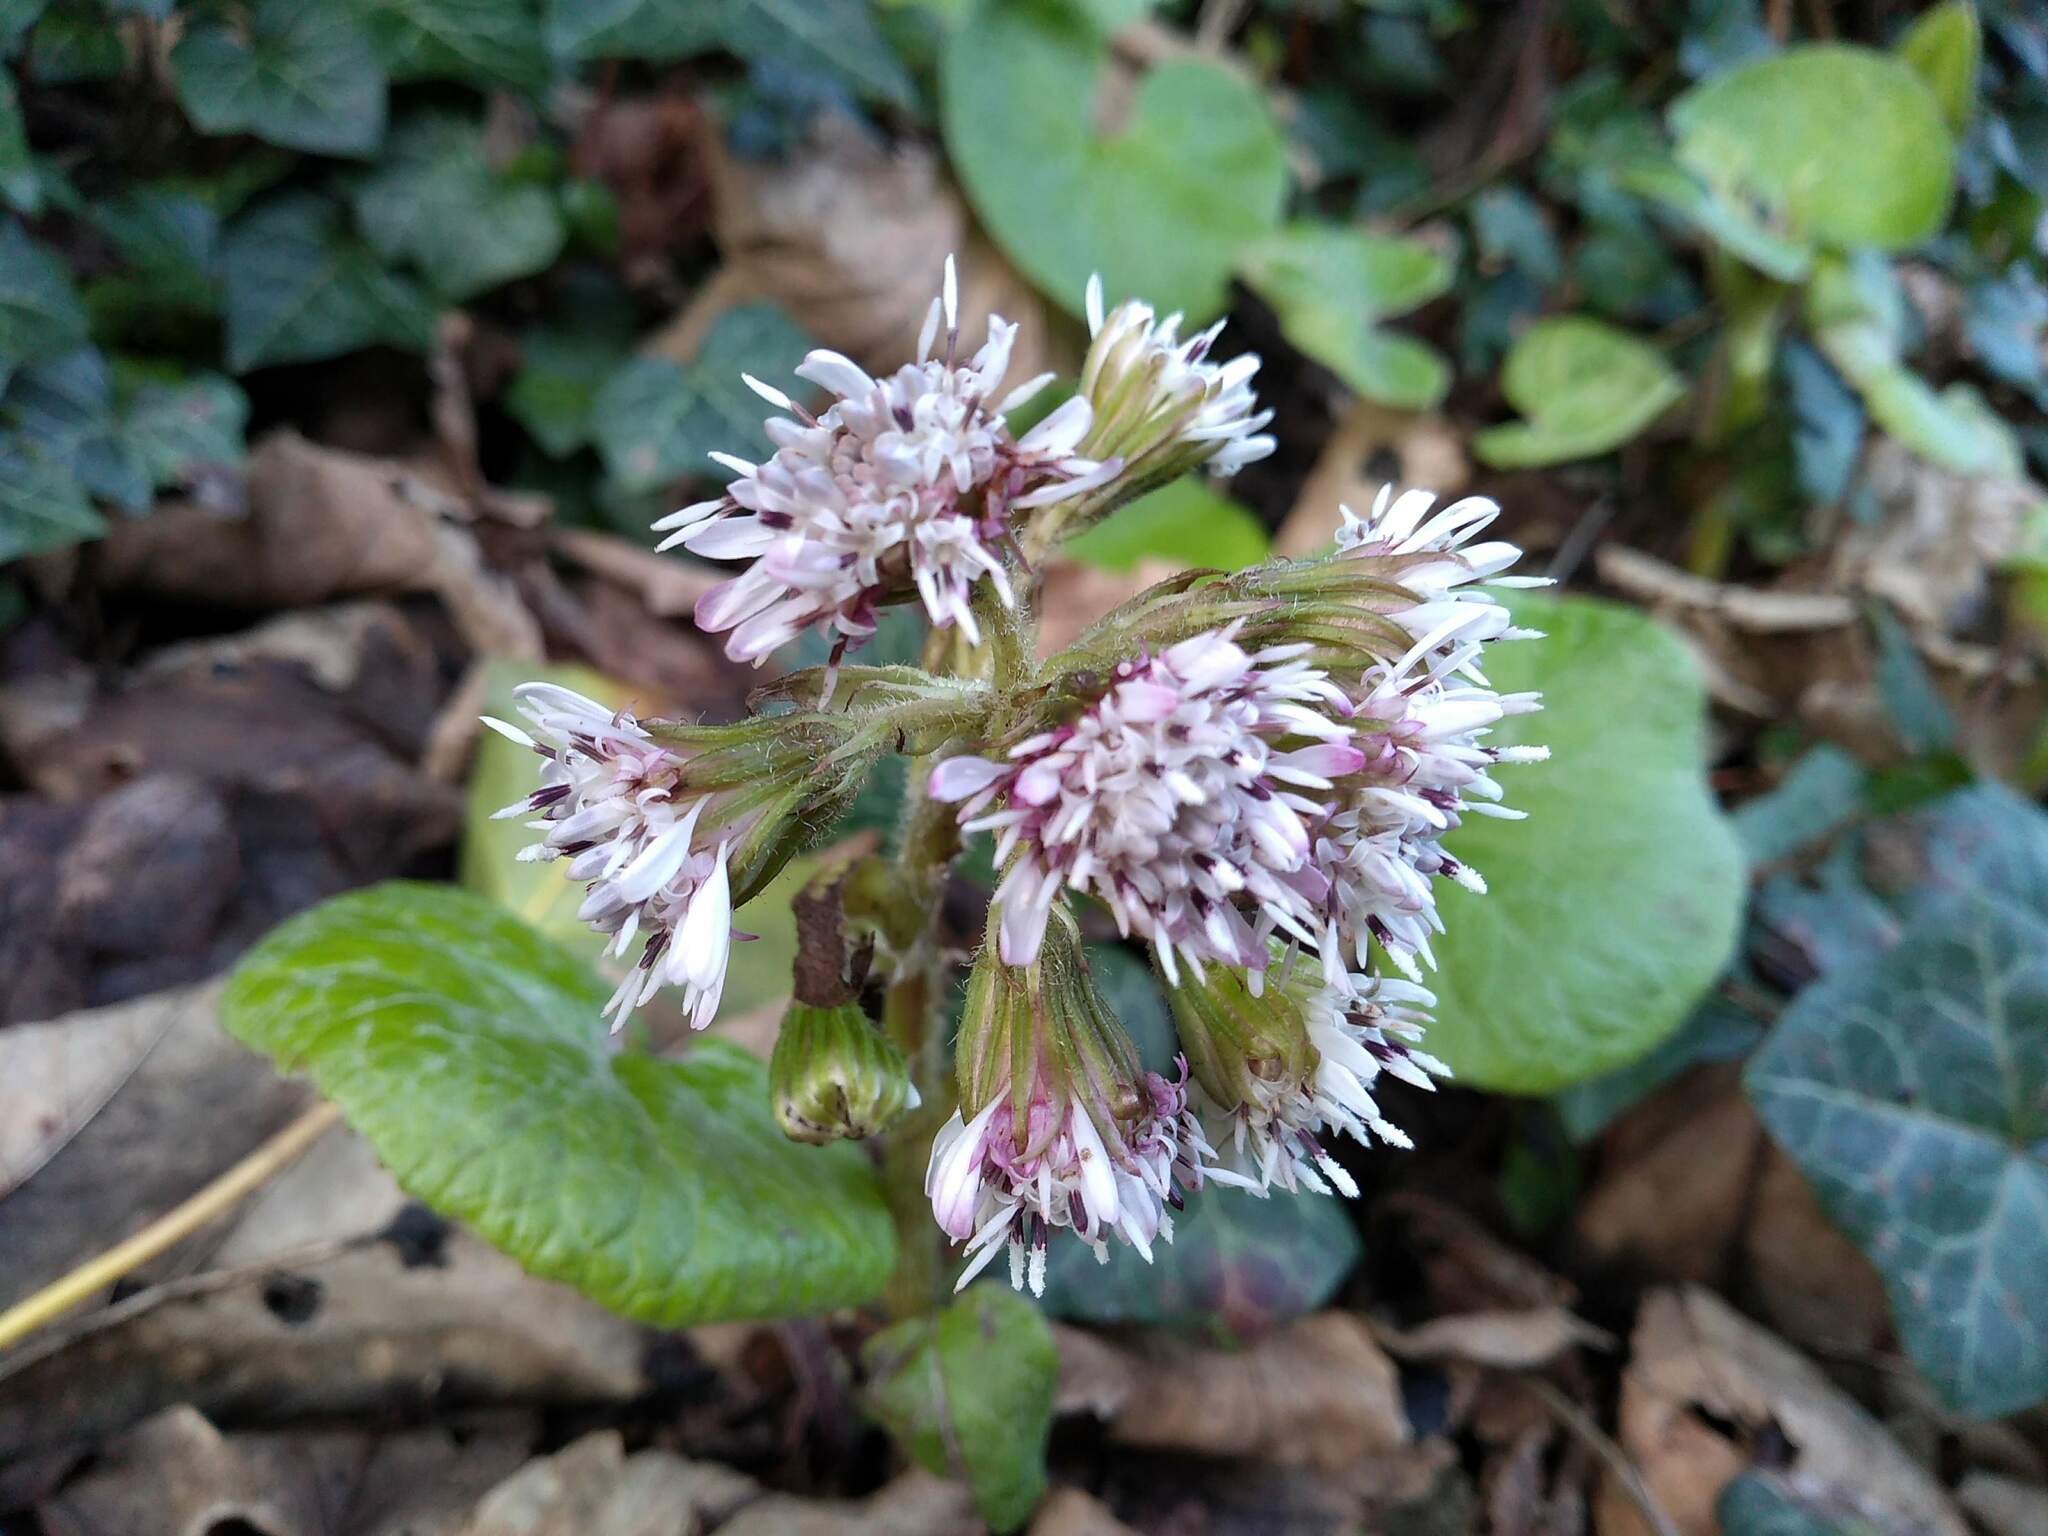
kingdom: Plantae
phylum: Tracheophyta
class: Magnoliopsida
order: Asterales
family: Asteraceae
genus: Petasites
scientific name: Petasites pyrenaicus
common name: Winter heliotrope
